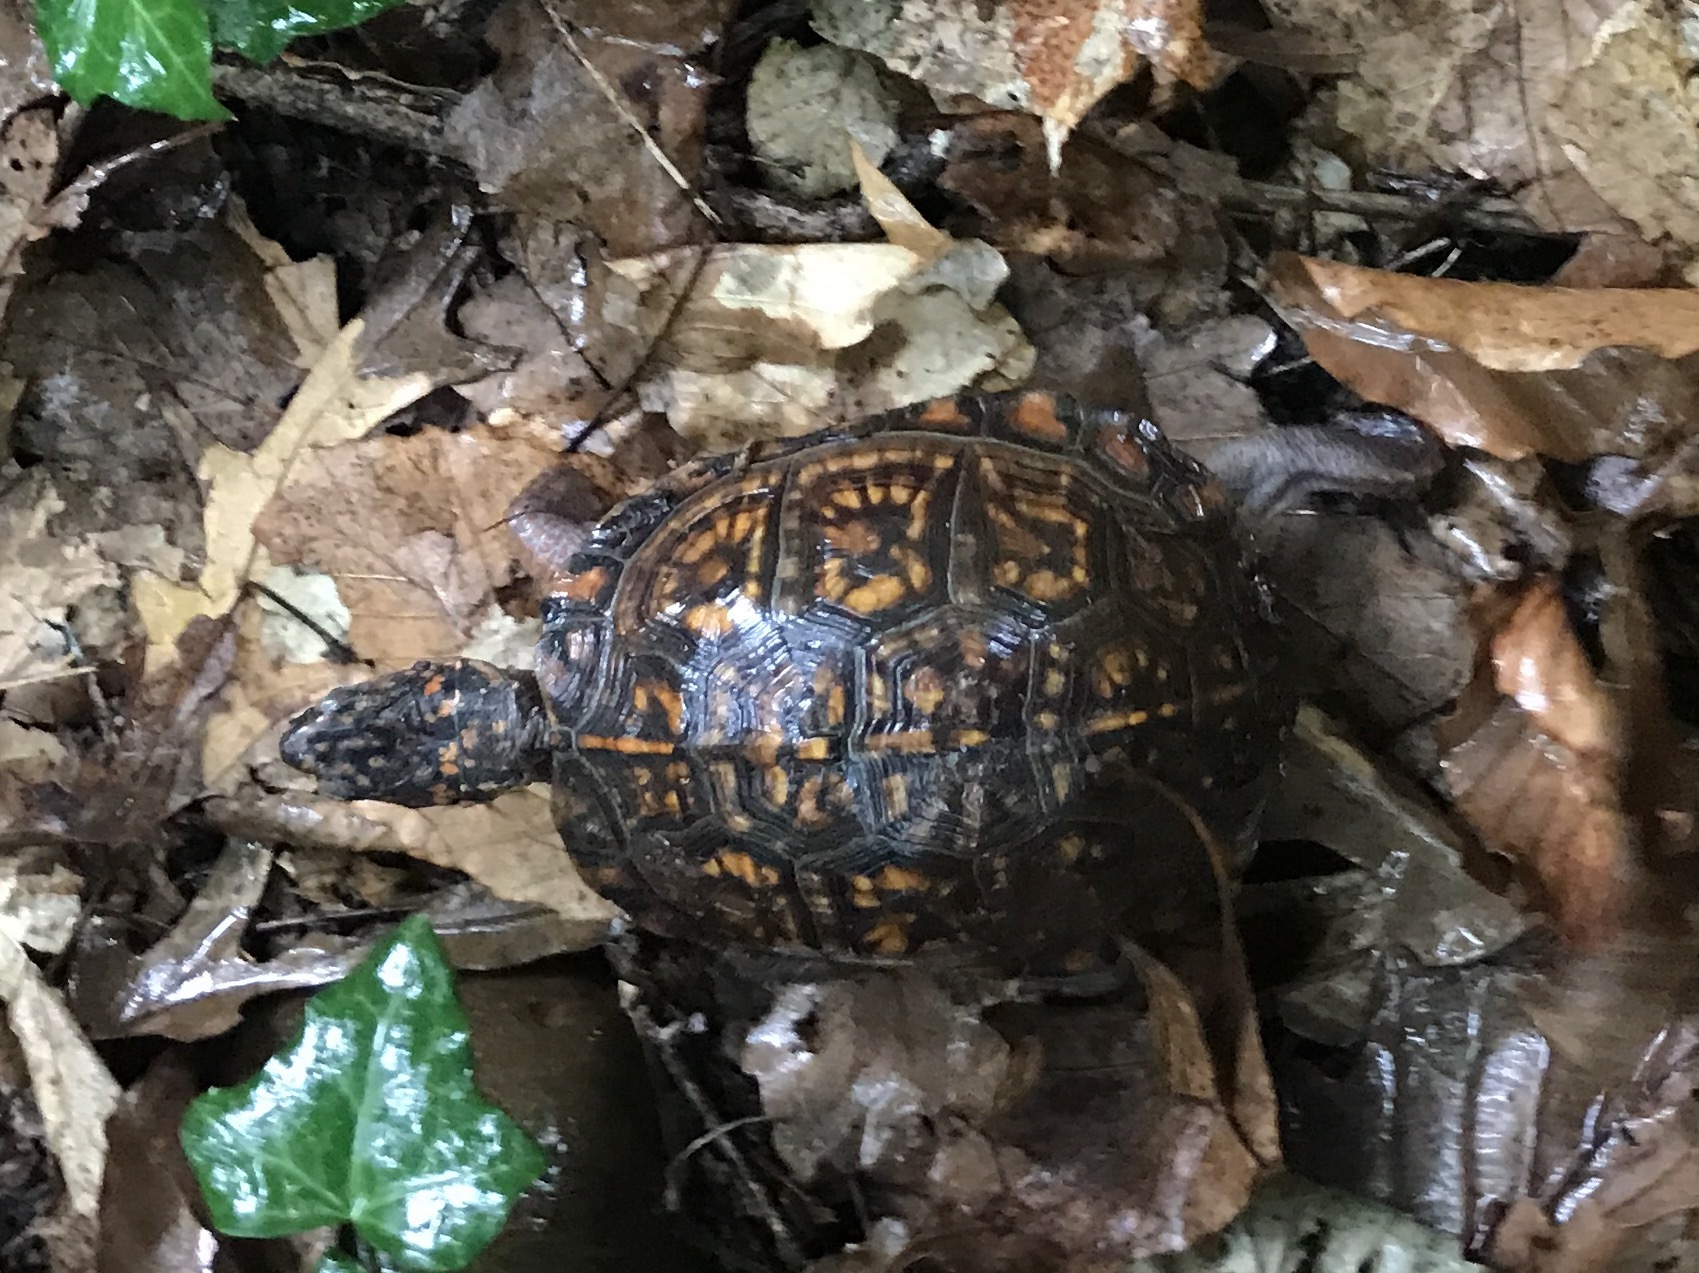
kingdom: Animalia
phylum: Chordata
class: Testudines
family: Emydidae
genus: Terrapene
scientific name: Terrapene carolina
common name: Common box turtle
